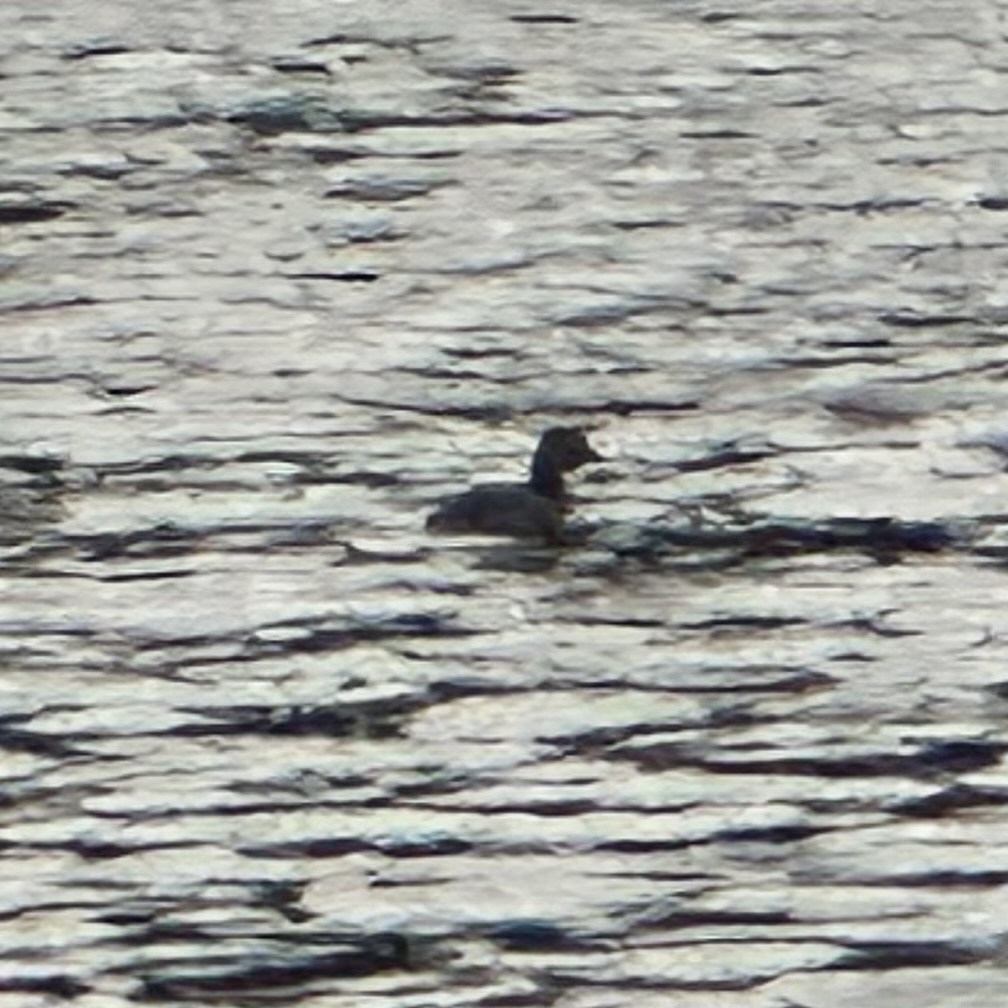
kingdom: Animalia
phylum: Chordata
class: Aves
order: Podicipediformes
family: Podicipedidae
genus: Tachybaptus
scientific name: Tachybaptus dominicus
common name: Least grebe
